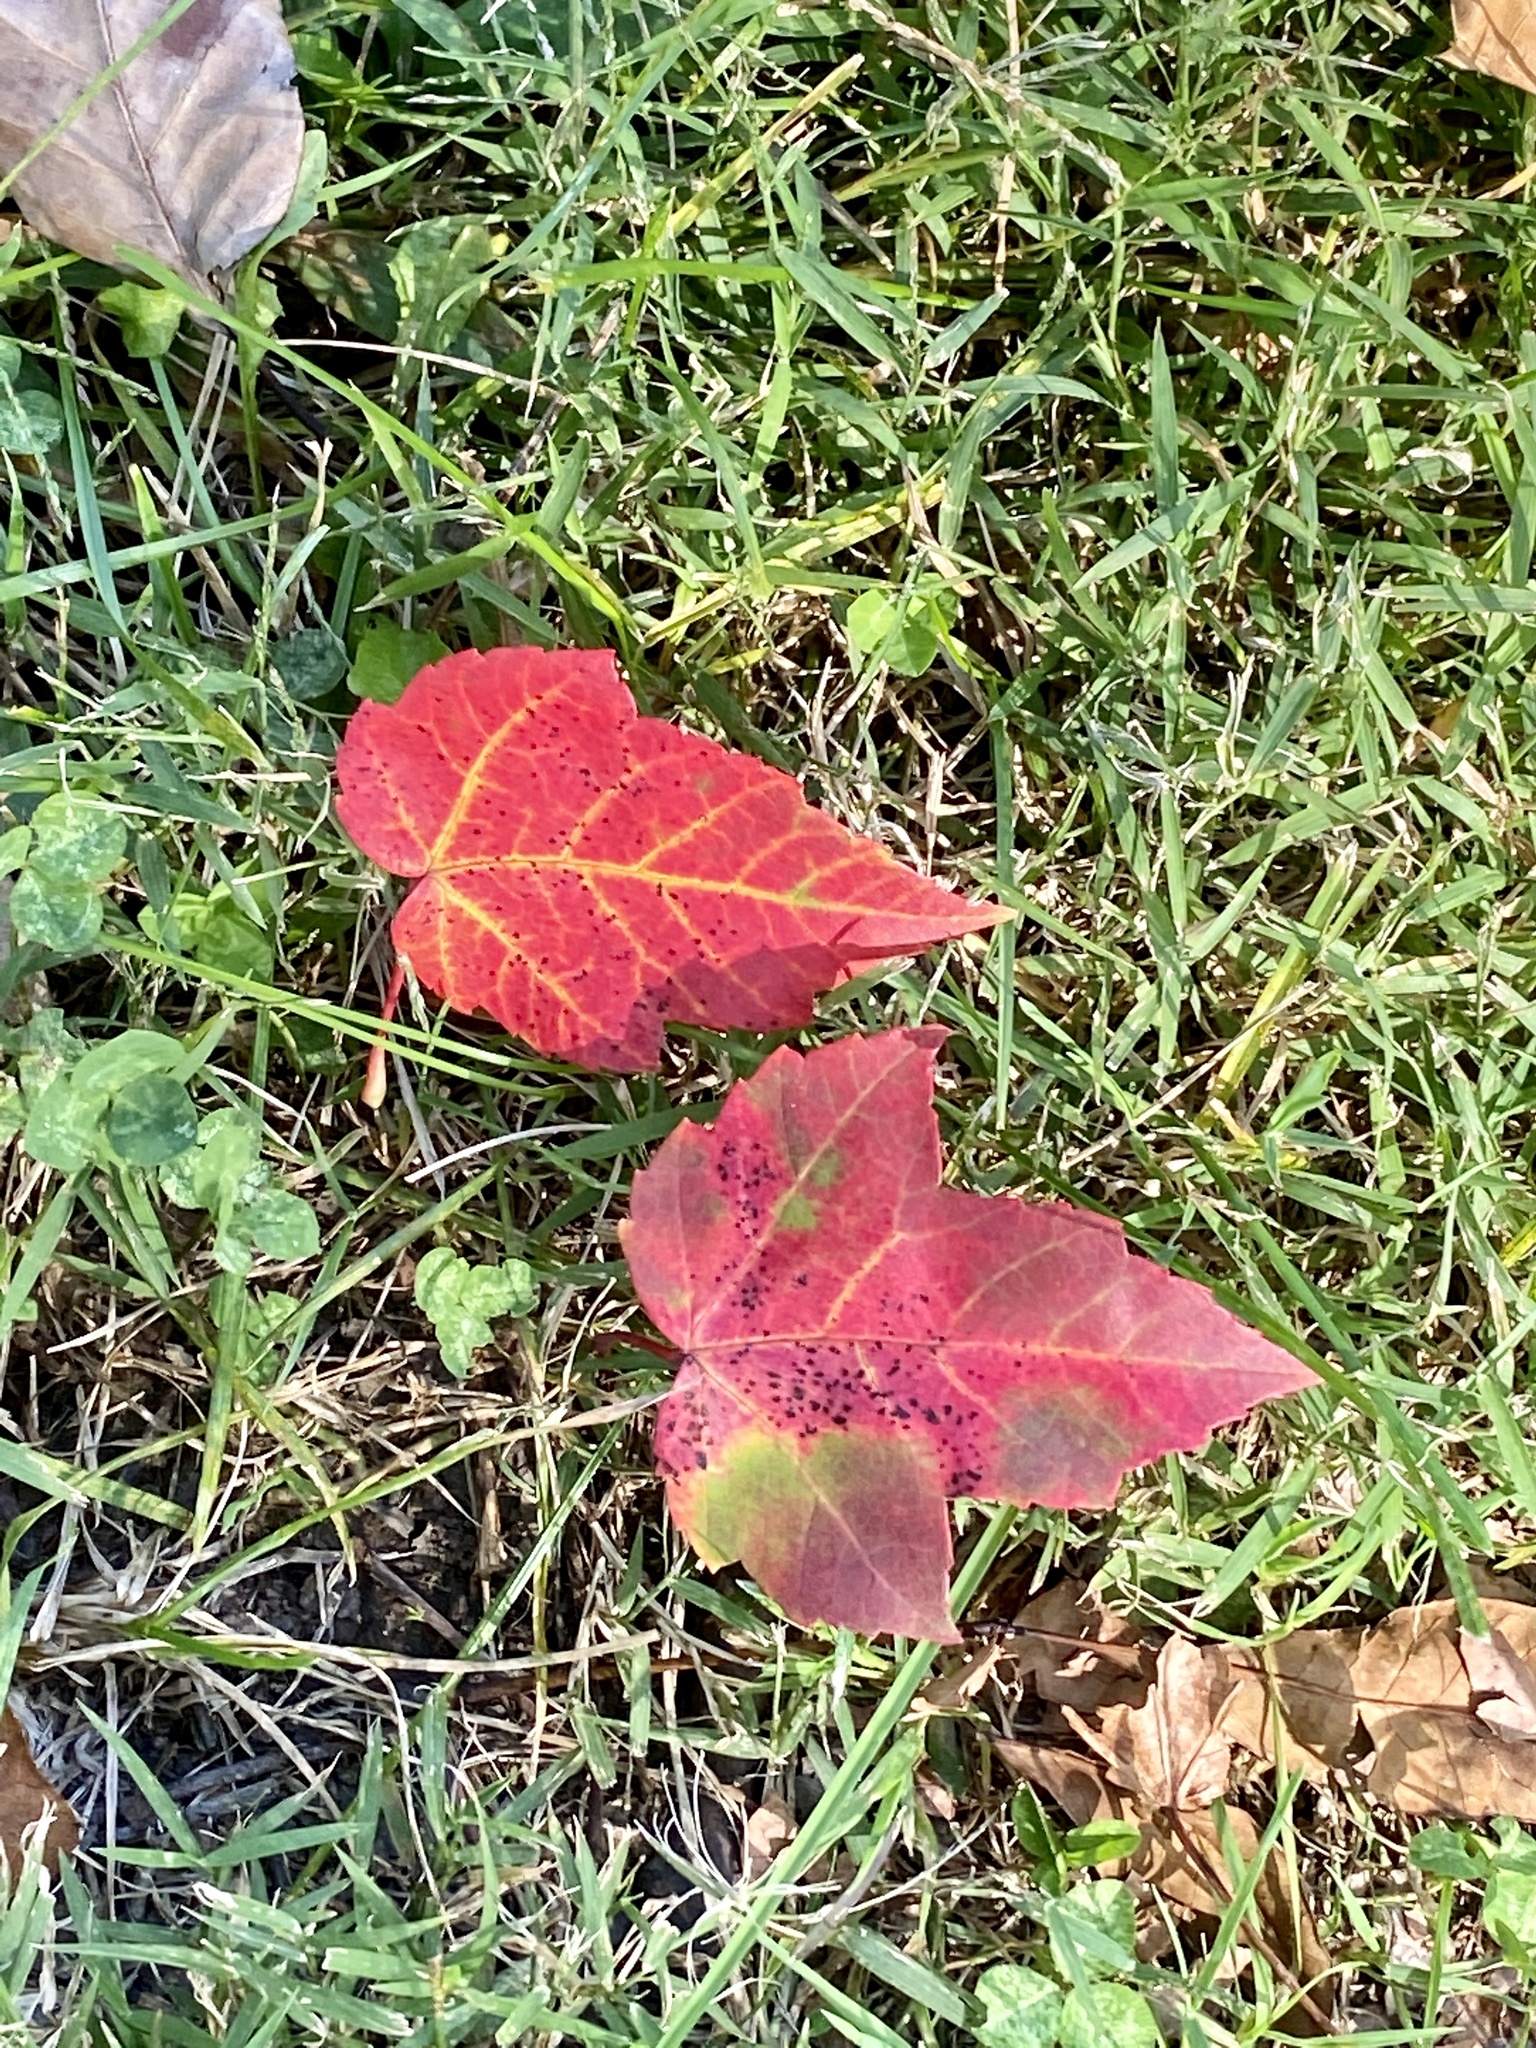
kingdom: Plantae
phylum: Tracheophyta
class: Magnoliopsida
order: Sapindales
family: Sapindaceae
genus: Acer
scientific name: Acer rubrum
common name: Red maple
